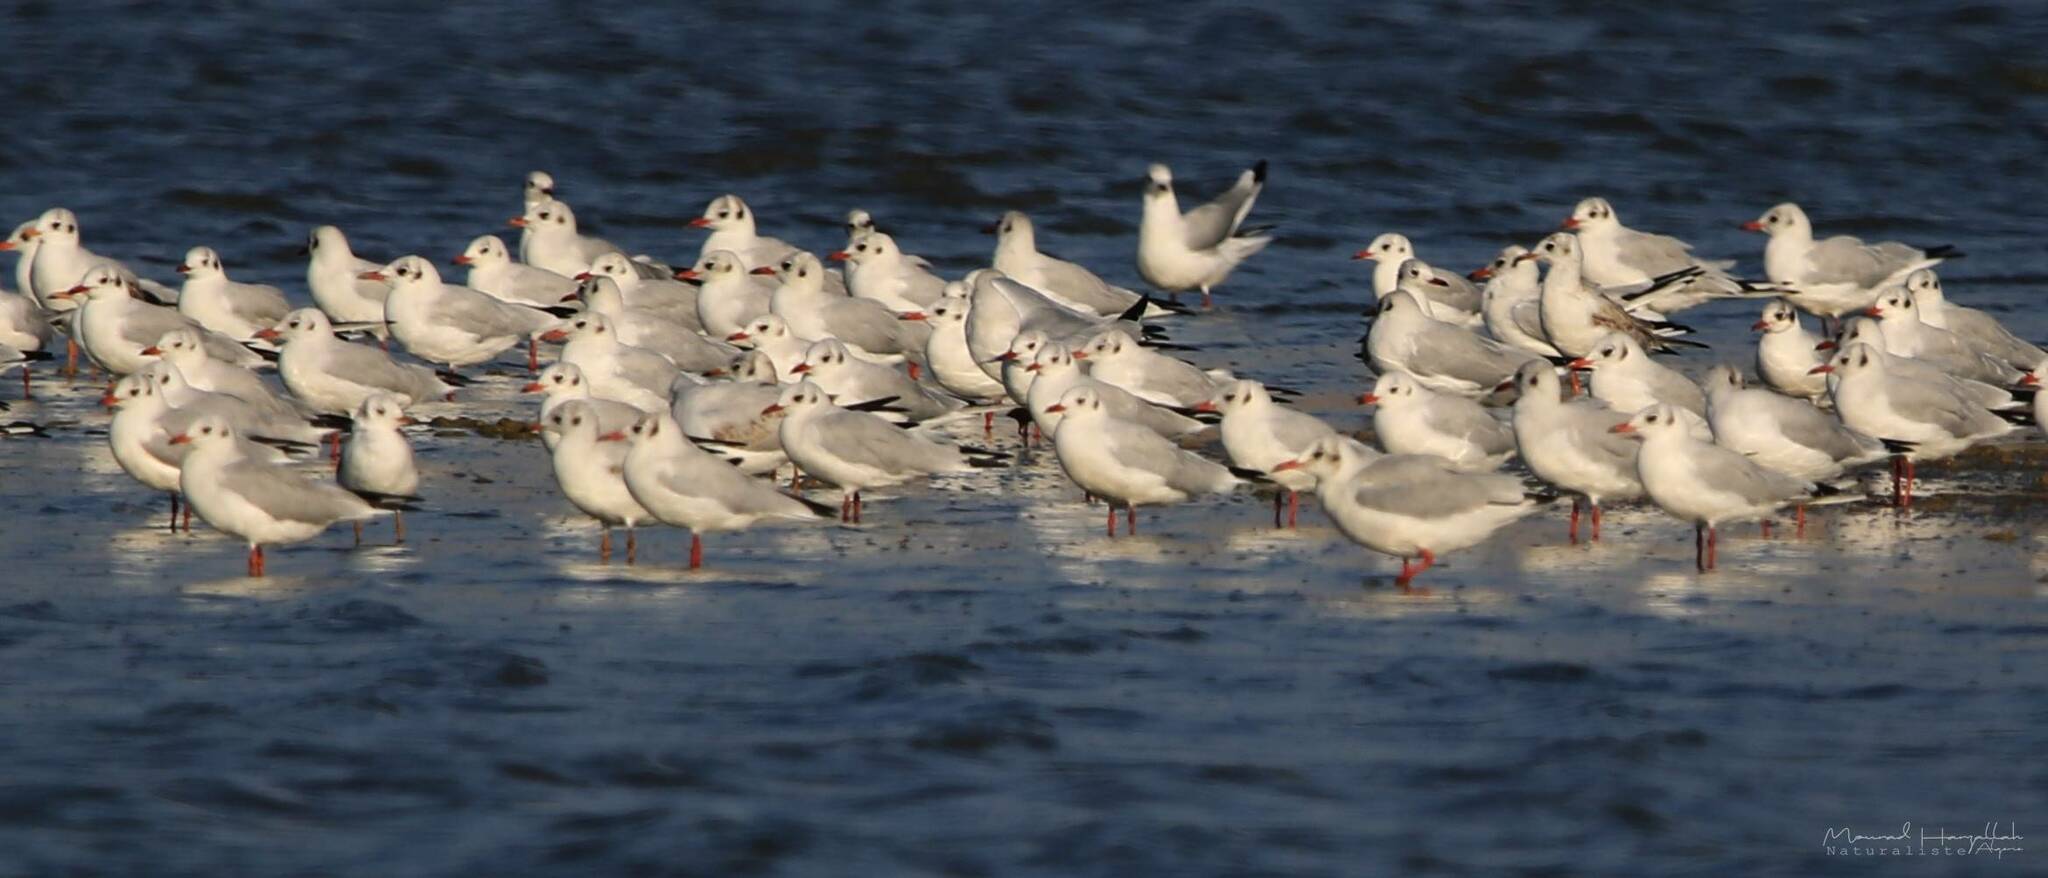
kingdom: Animalia
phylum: Chordata
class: Aves
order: Charadriiformes
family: Laridae
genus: Chroicocephalus
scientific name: Chroicocephalus ridibundus
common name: Black-headed gull
